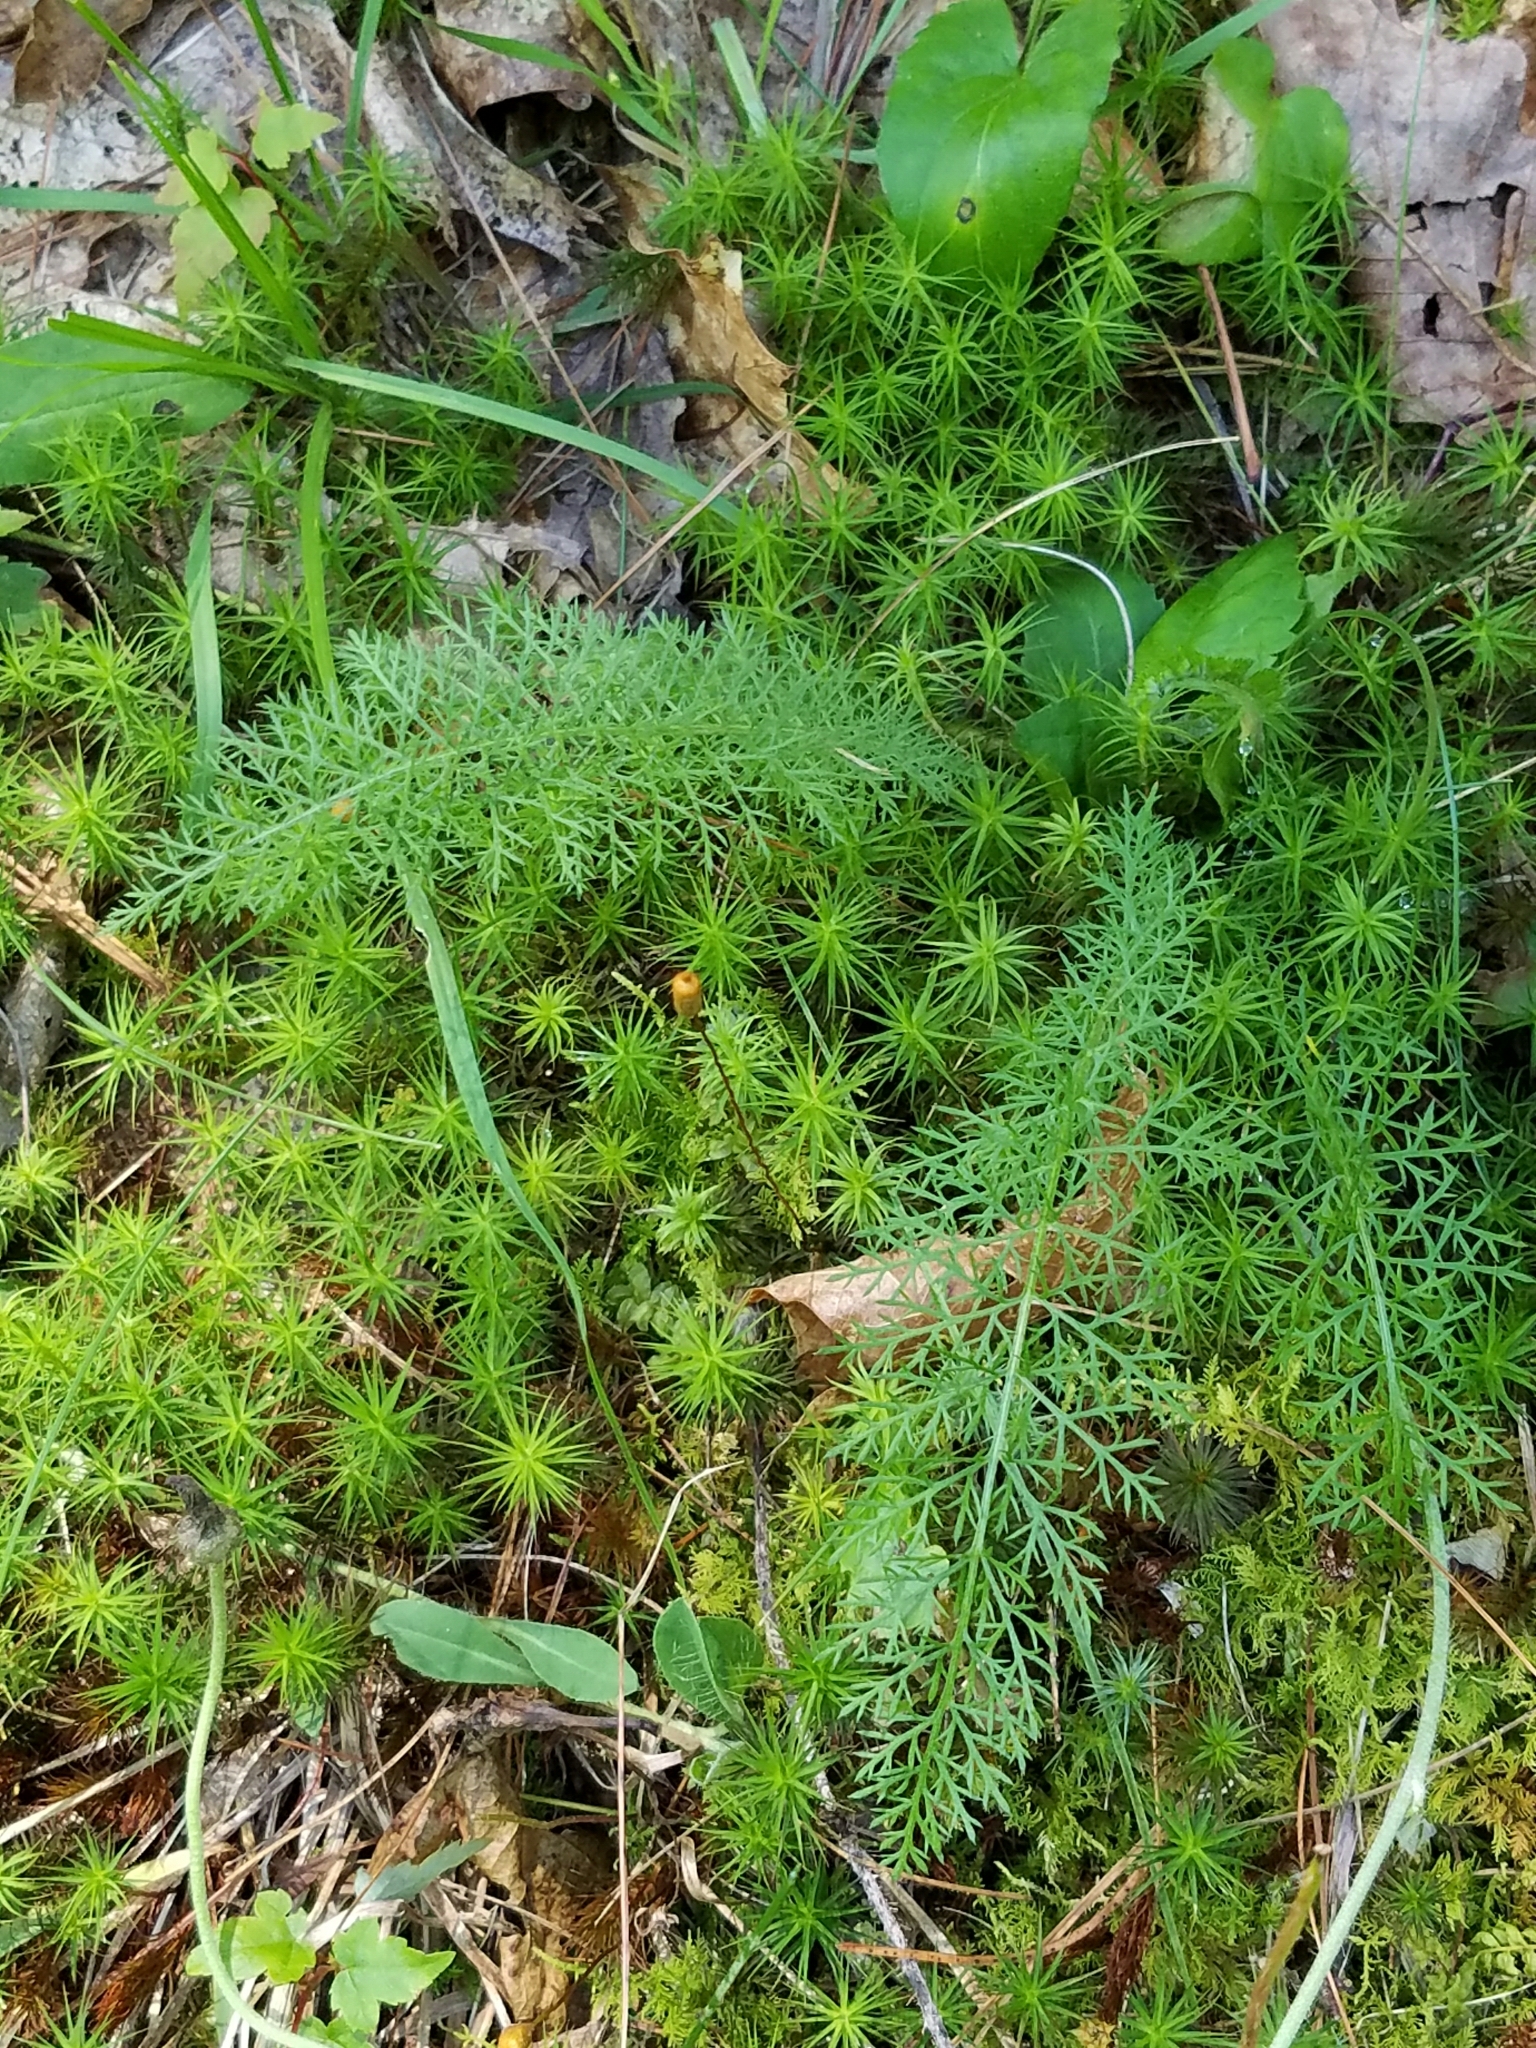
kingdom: Plantae
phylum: Tracheophyta
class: Magnoliopsida
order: Asterales
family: Asteraceae
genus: Achillea
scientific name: Achillea millefolium
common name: Yarrow
